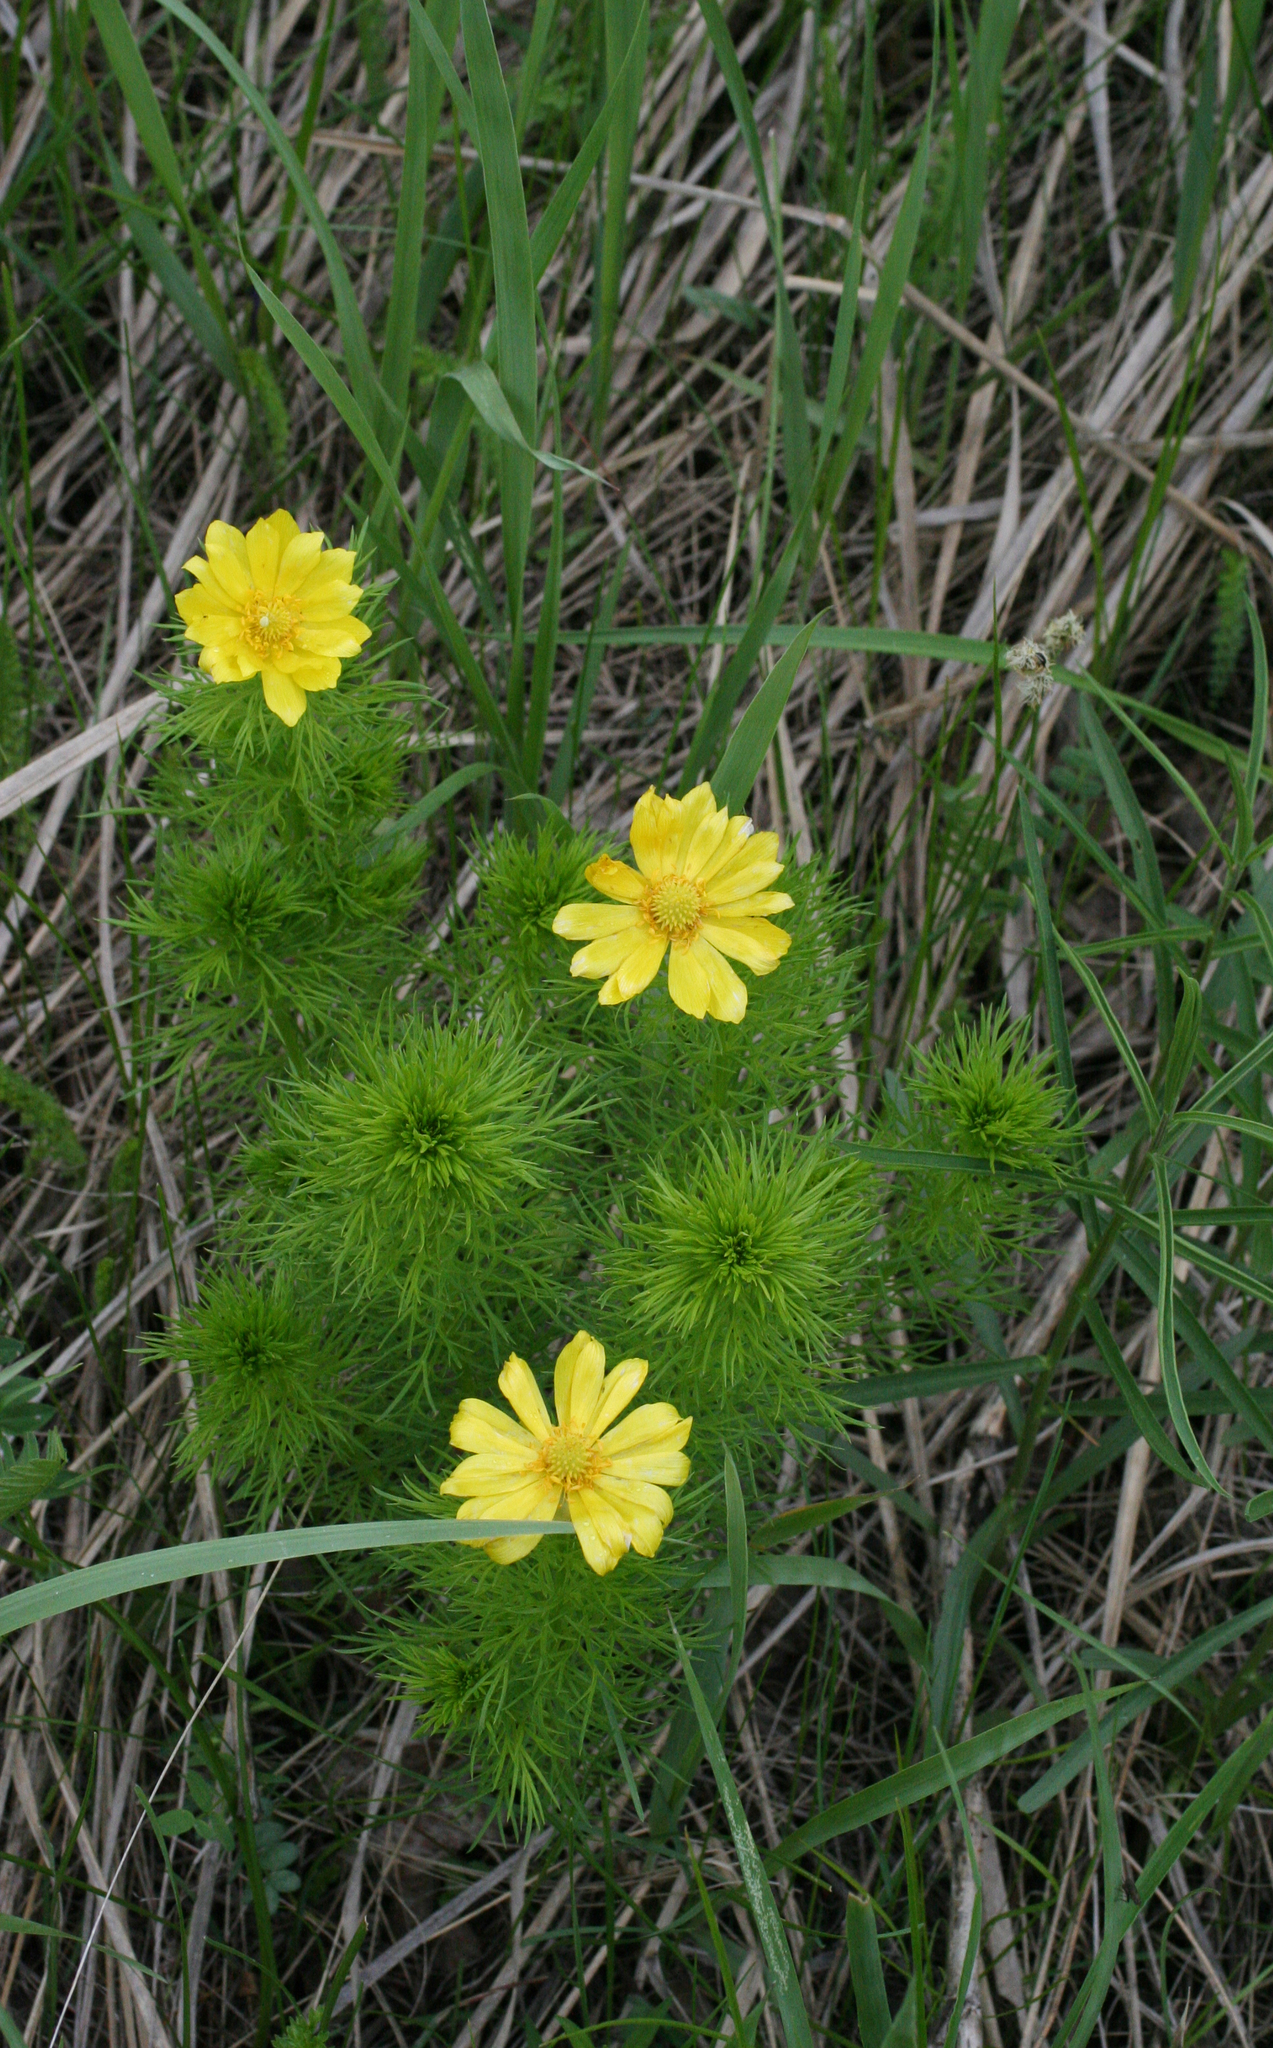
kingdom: Plantae
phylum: Tracheophyta
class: Magnoliopsida
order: Ranunculales
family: Ranunculaceae
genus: Adonis
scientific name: Adonis vernalis
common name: Yellow pheasants-eye
